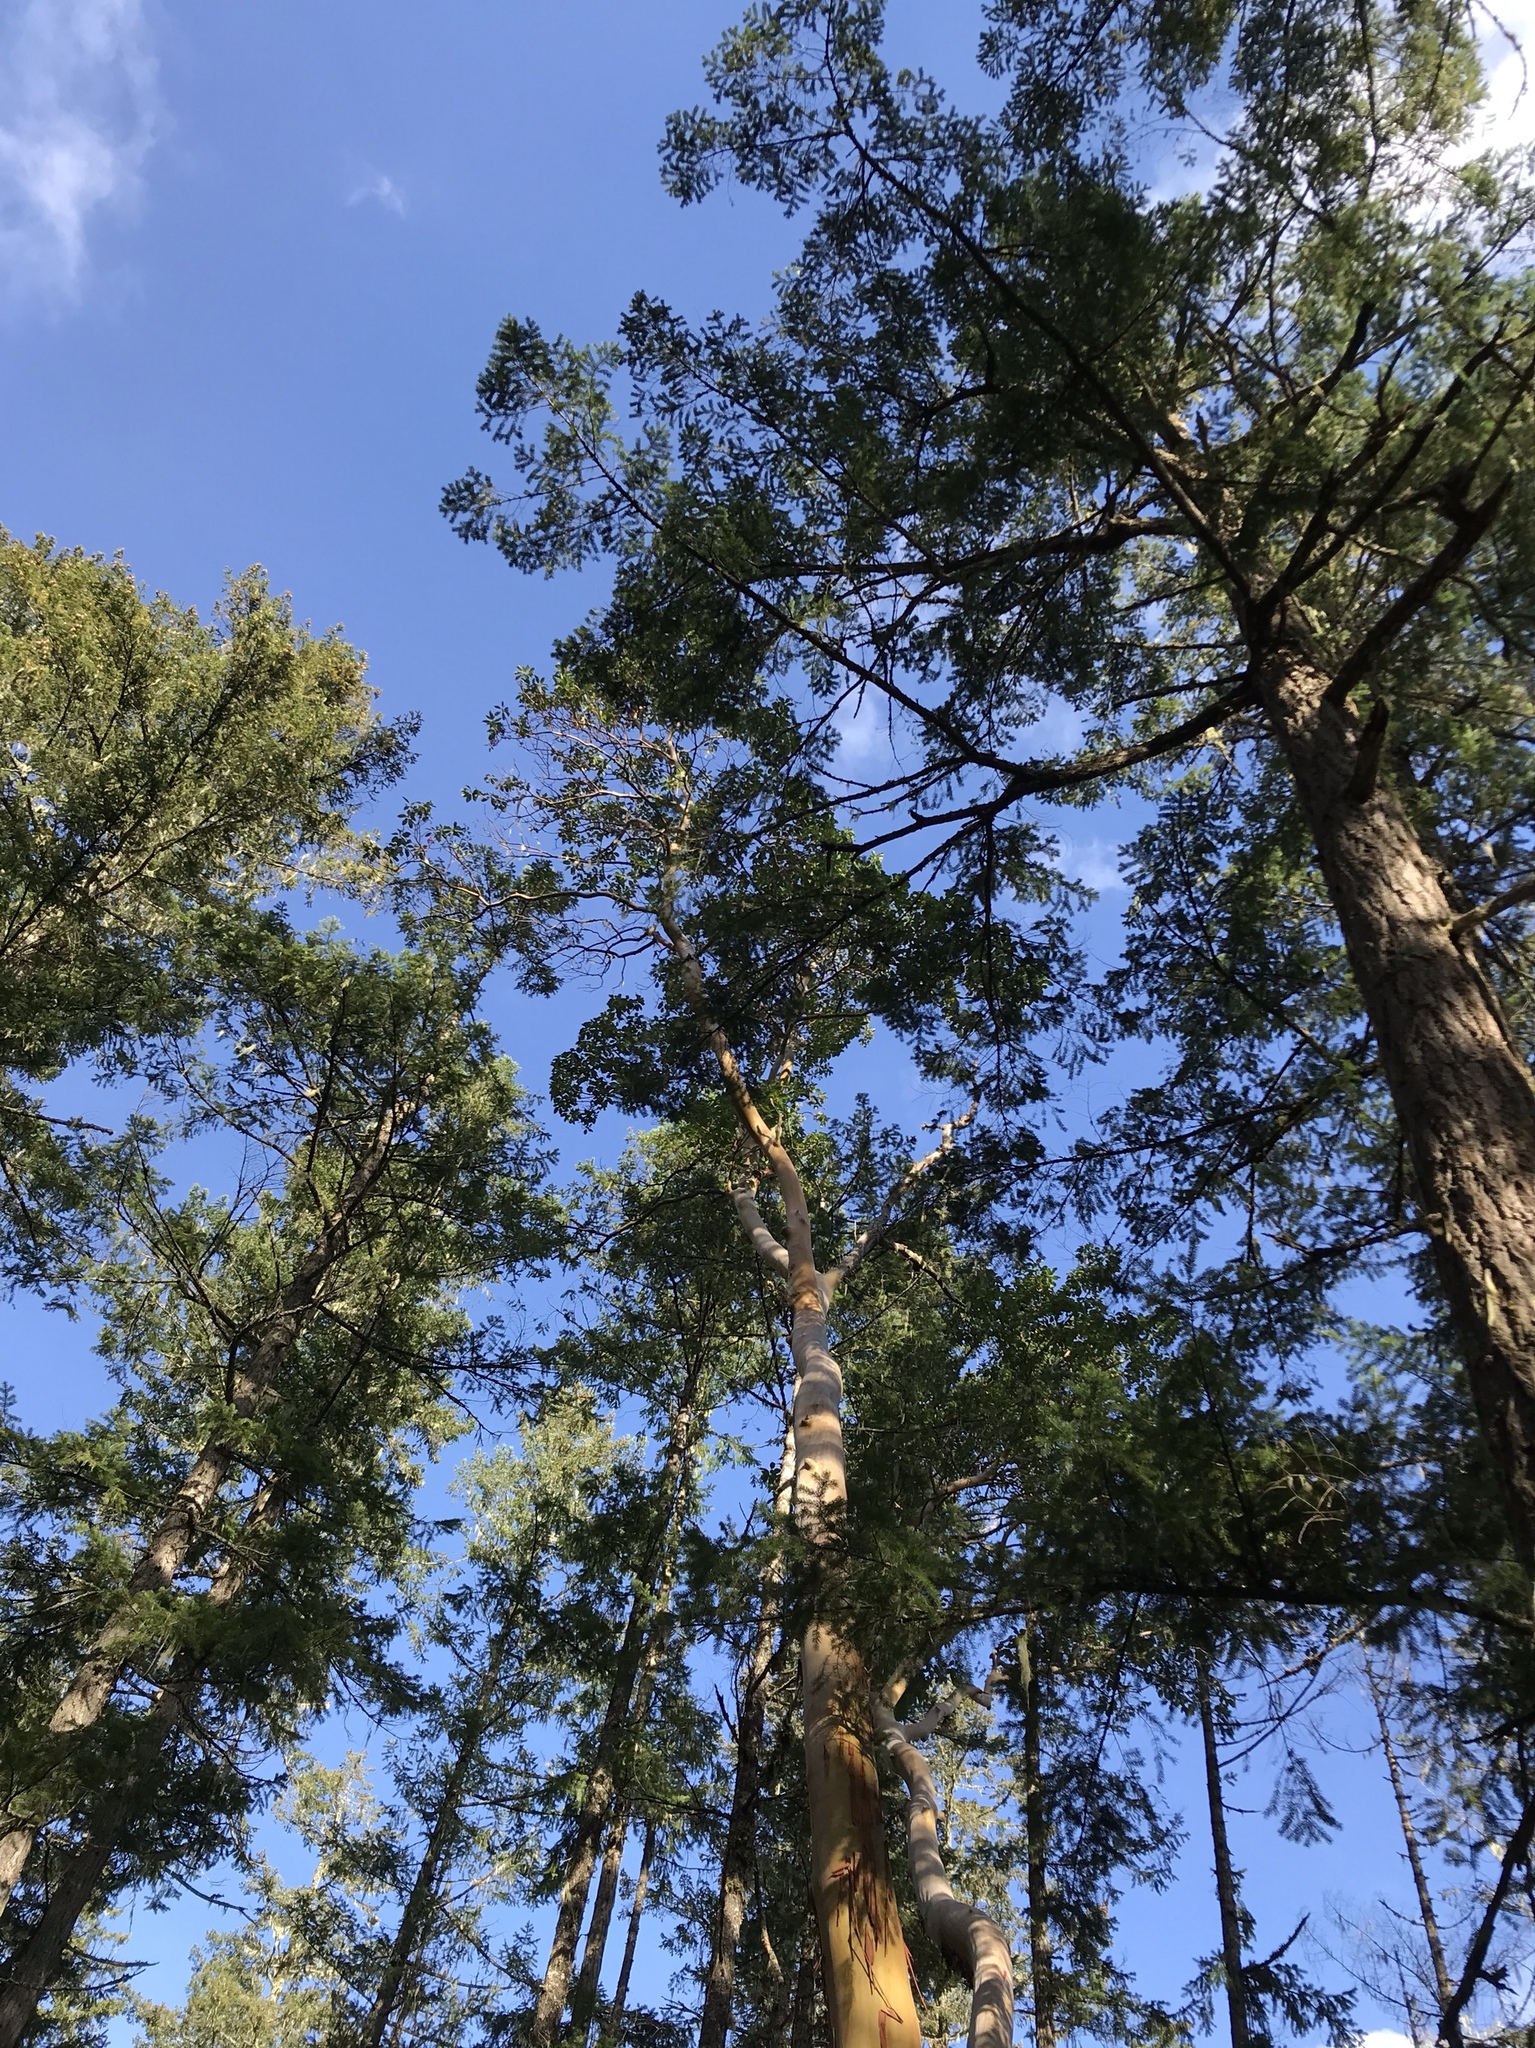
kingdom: Plantae
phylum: Tracheophyta
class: Magnoliopsida
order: Ericales
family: Ericaceae
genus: Arbutus
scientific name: Arbutus menziesii
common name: Pacific madrone
